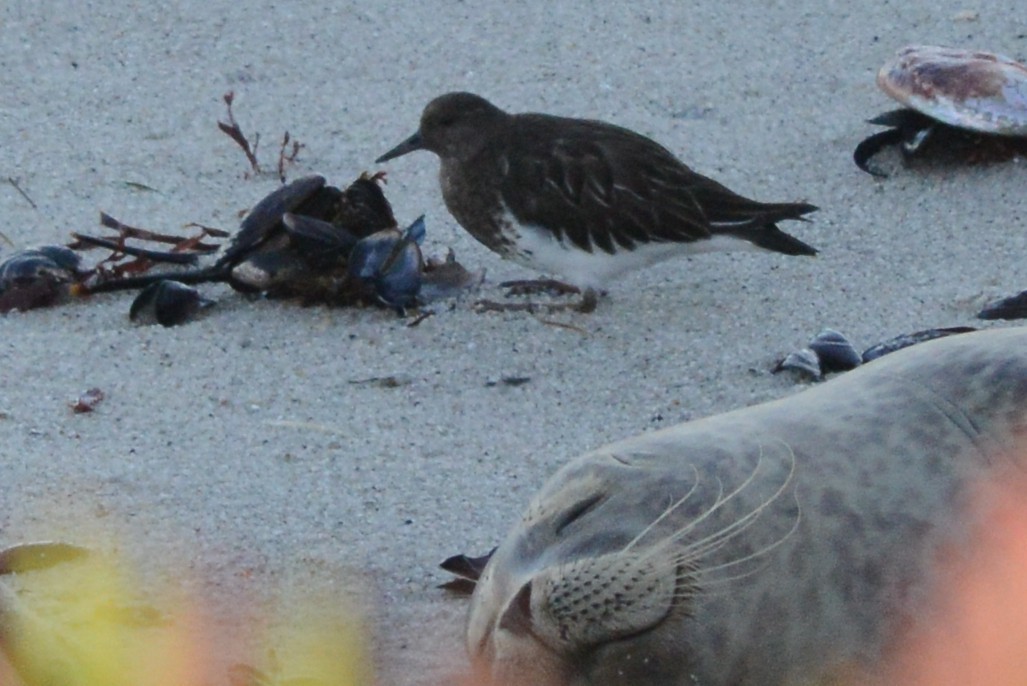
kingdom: Animalia
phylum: Chordata
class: Aves
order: Charadriiformes
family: Scolopacidae
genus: Arenaria
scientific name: Arenaria melanocephala
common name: Black turnstone
